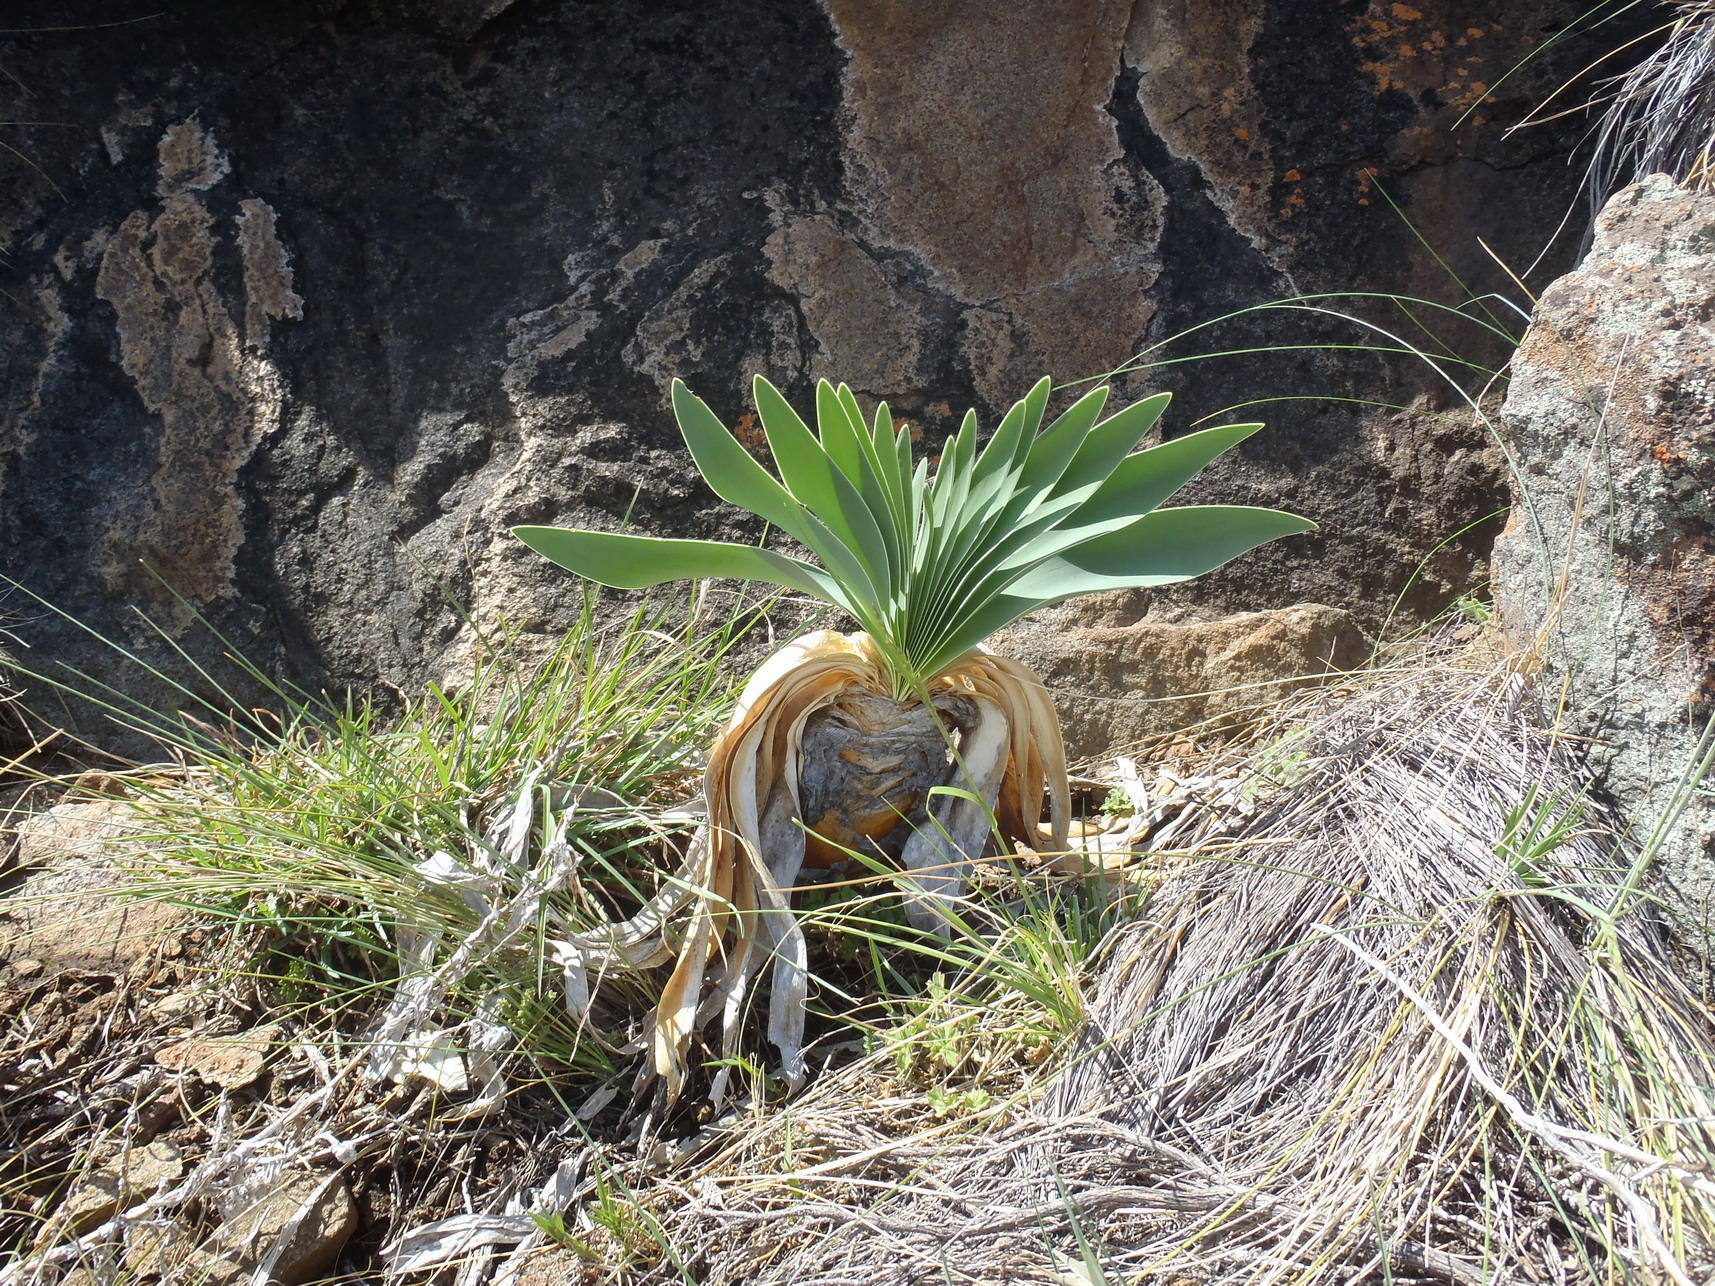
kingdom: Plantae
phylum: Tracheophyta
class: Liliopsida
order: Asparagales
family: Amaryllidaceae
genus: Boophone
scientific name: Boophone disticha
